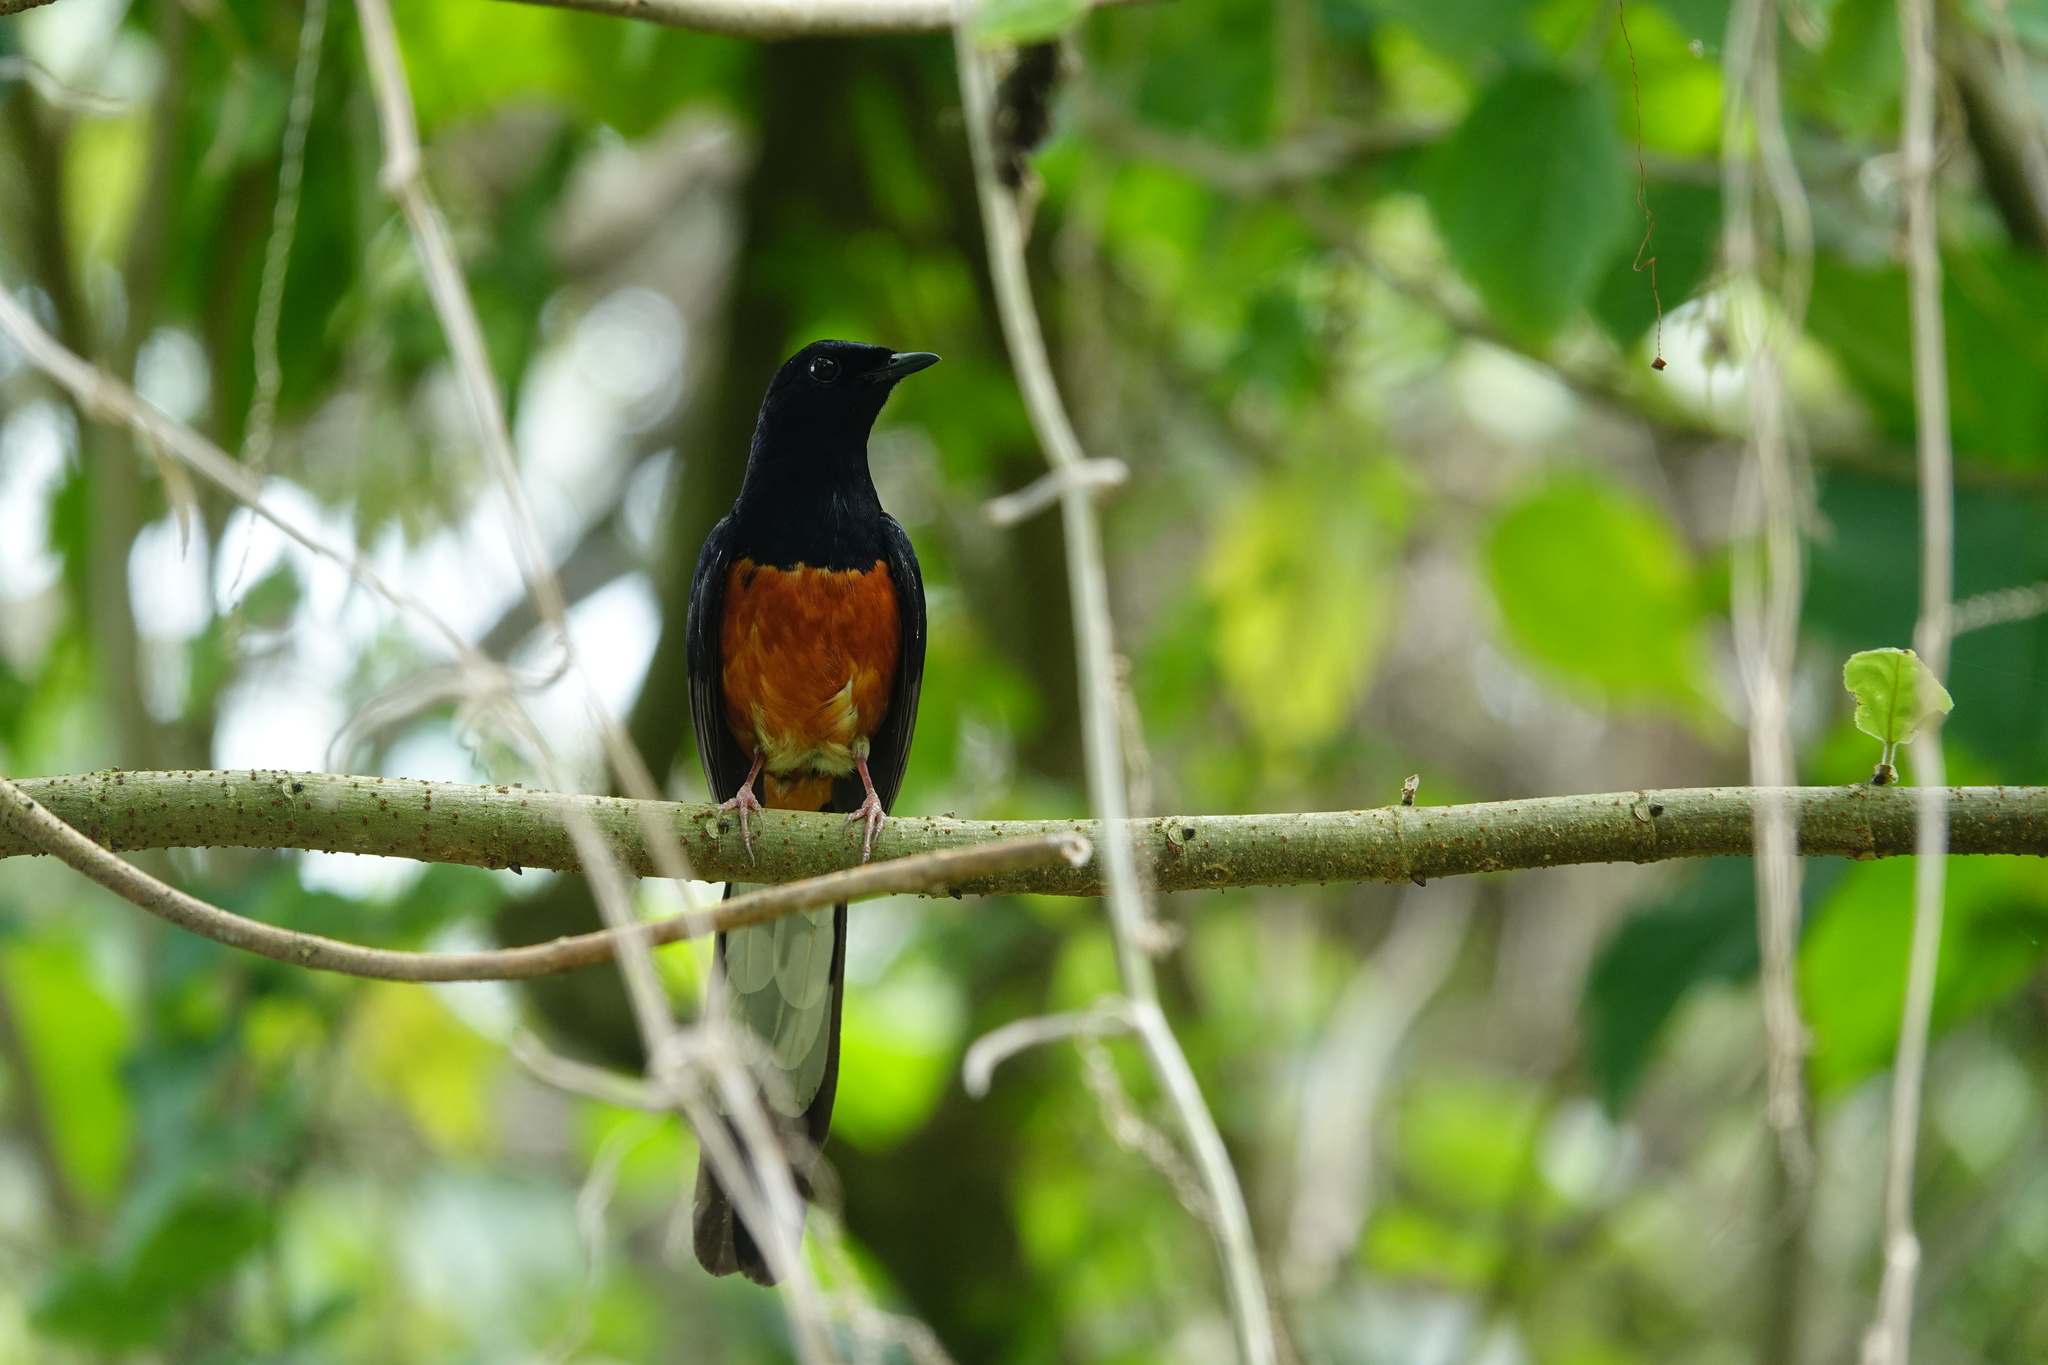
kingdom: Animalia
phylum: Chordata
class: Aves
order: Passeriformes
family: Muscicapidae
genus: Copsychus
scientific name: Copsychus malabaricus
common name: White-rumped shama
